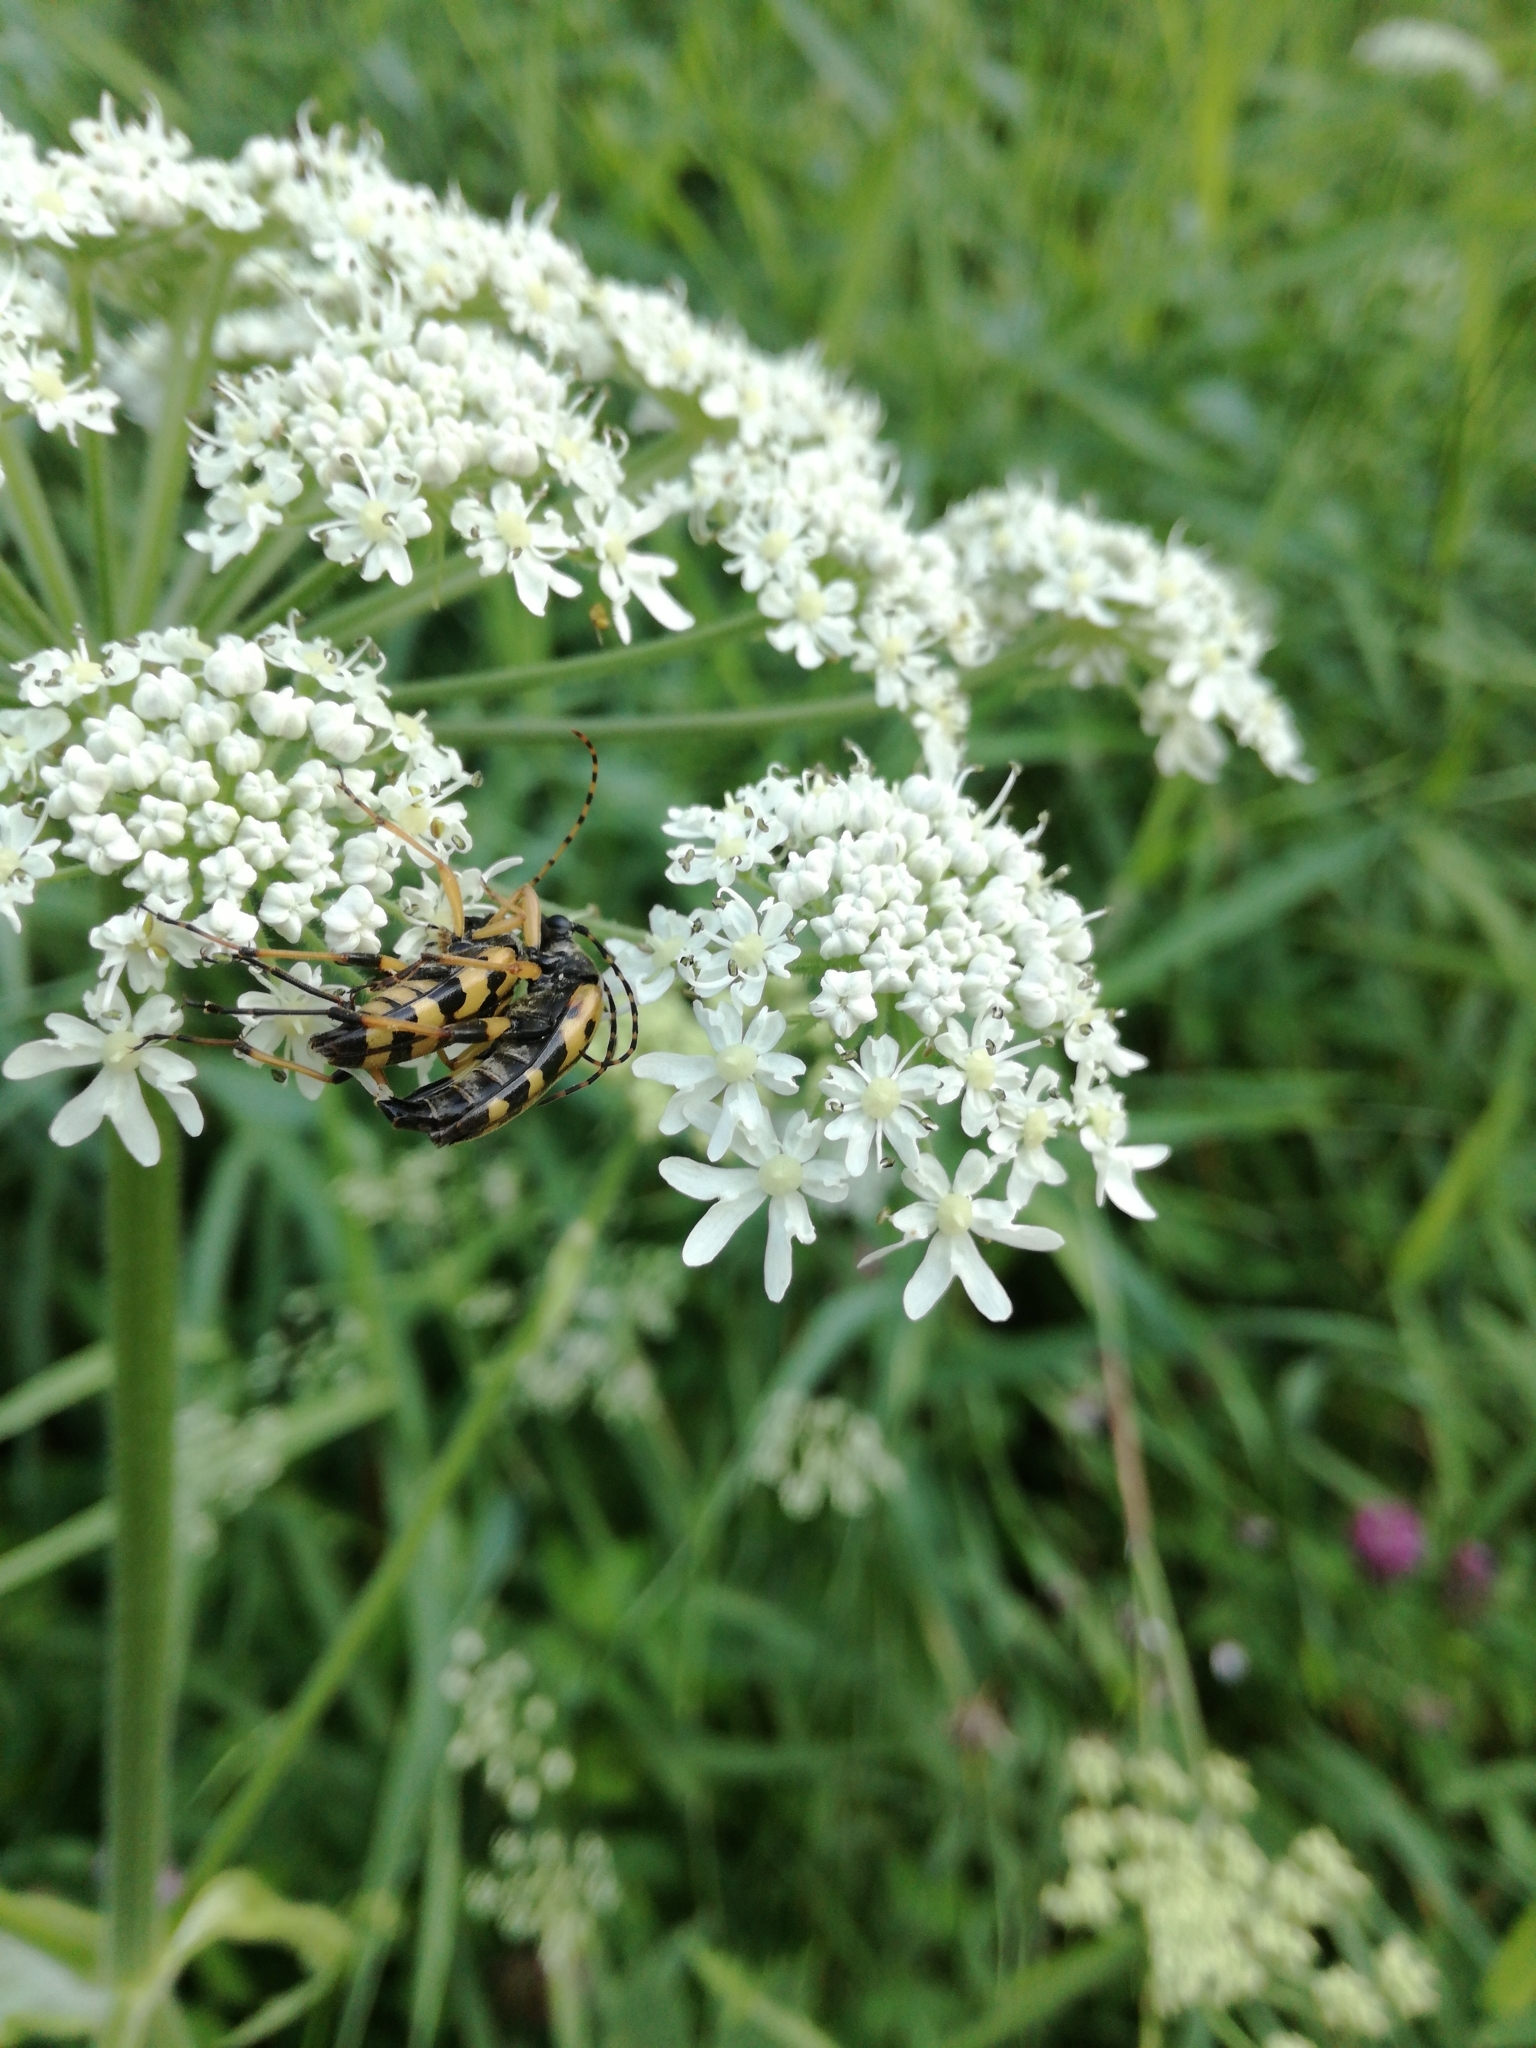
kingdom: Animalia
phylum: Arthropoda
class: Insecta
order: Coleoptera
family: Cerambycidae
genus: Rutpela
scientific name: Rutpela maculata
